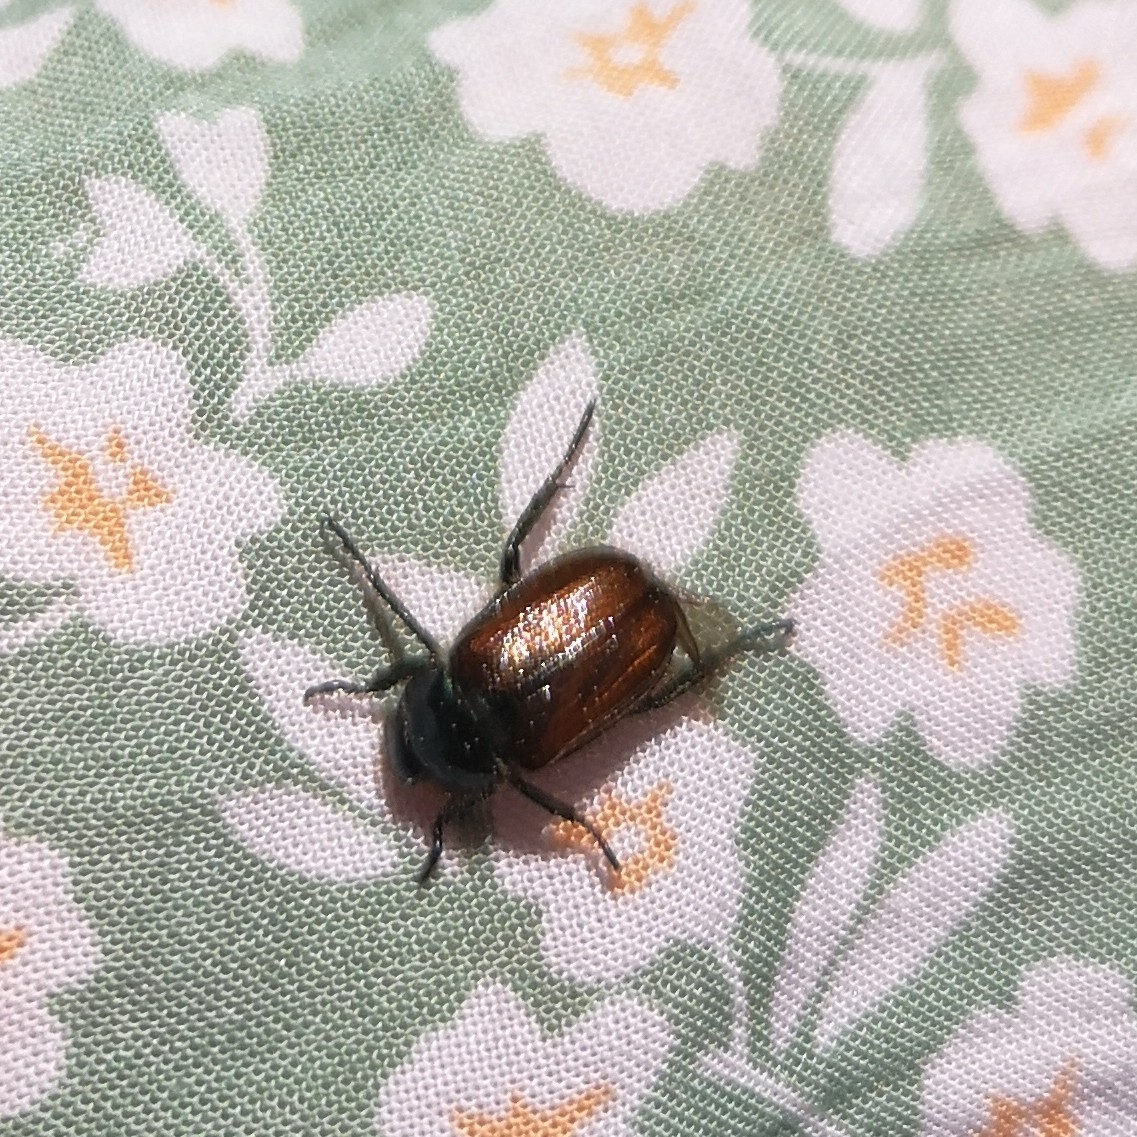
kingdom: Animalia
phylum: Arthropoda
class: Insecta
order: Coleoptera
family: Scarabaeidae
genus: Phyllopertha
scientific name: Phyllopertha horticola
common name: Garden chafer
